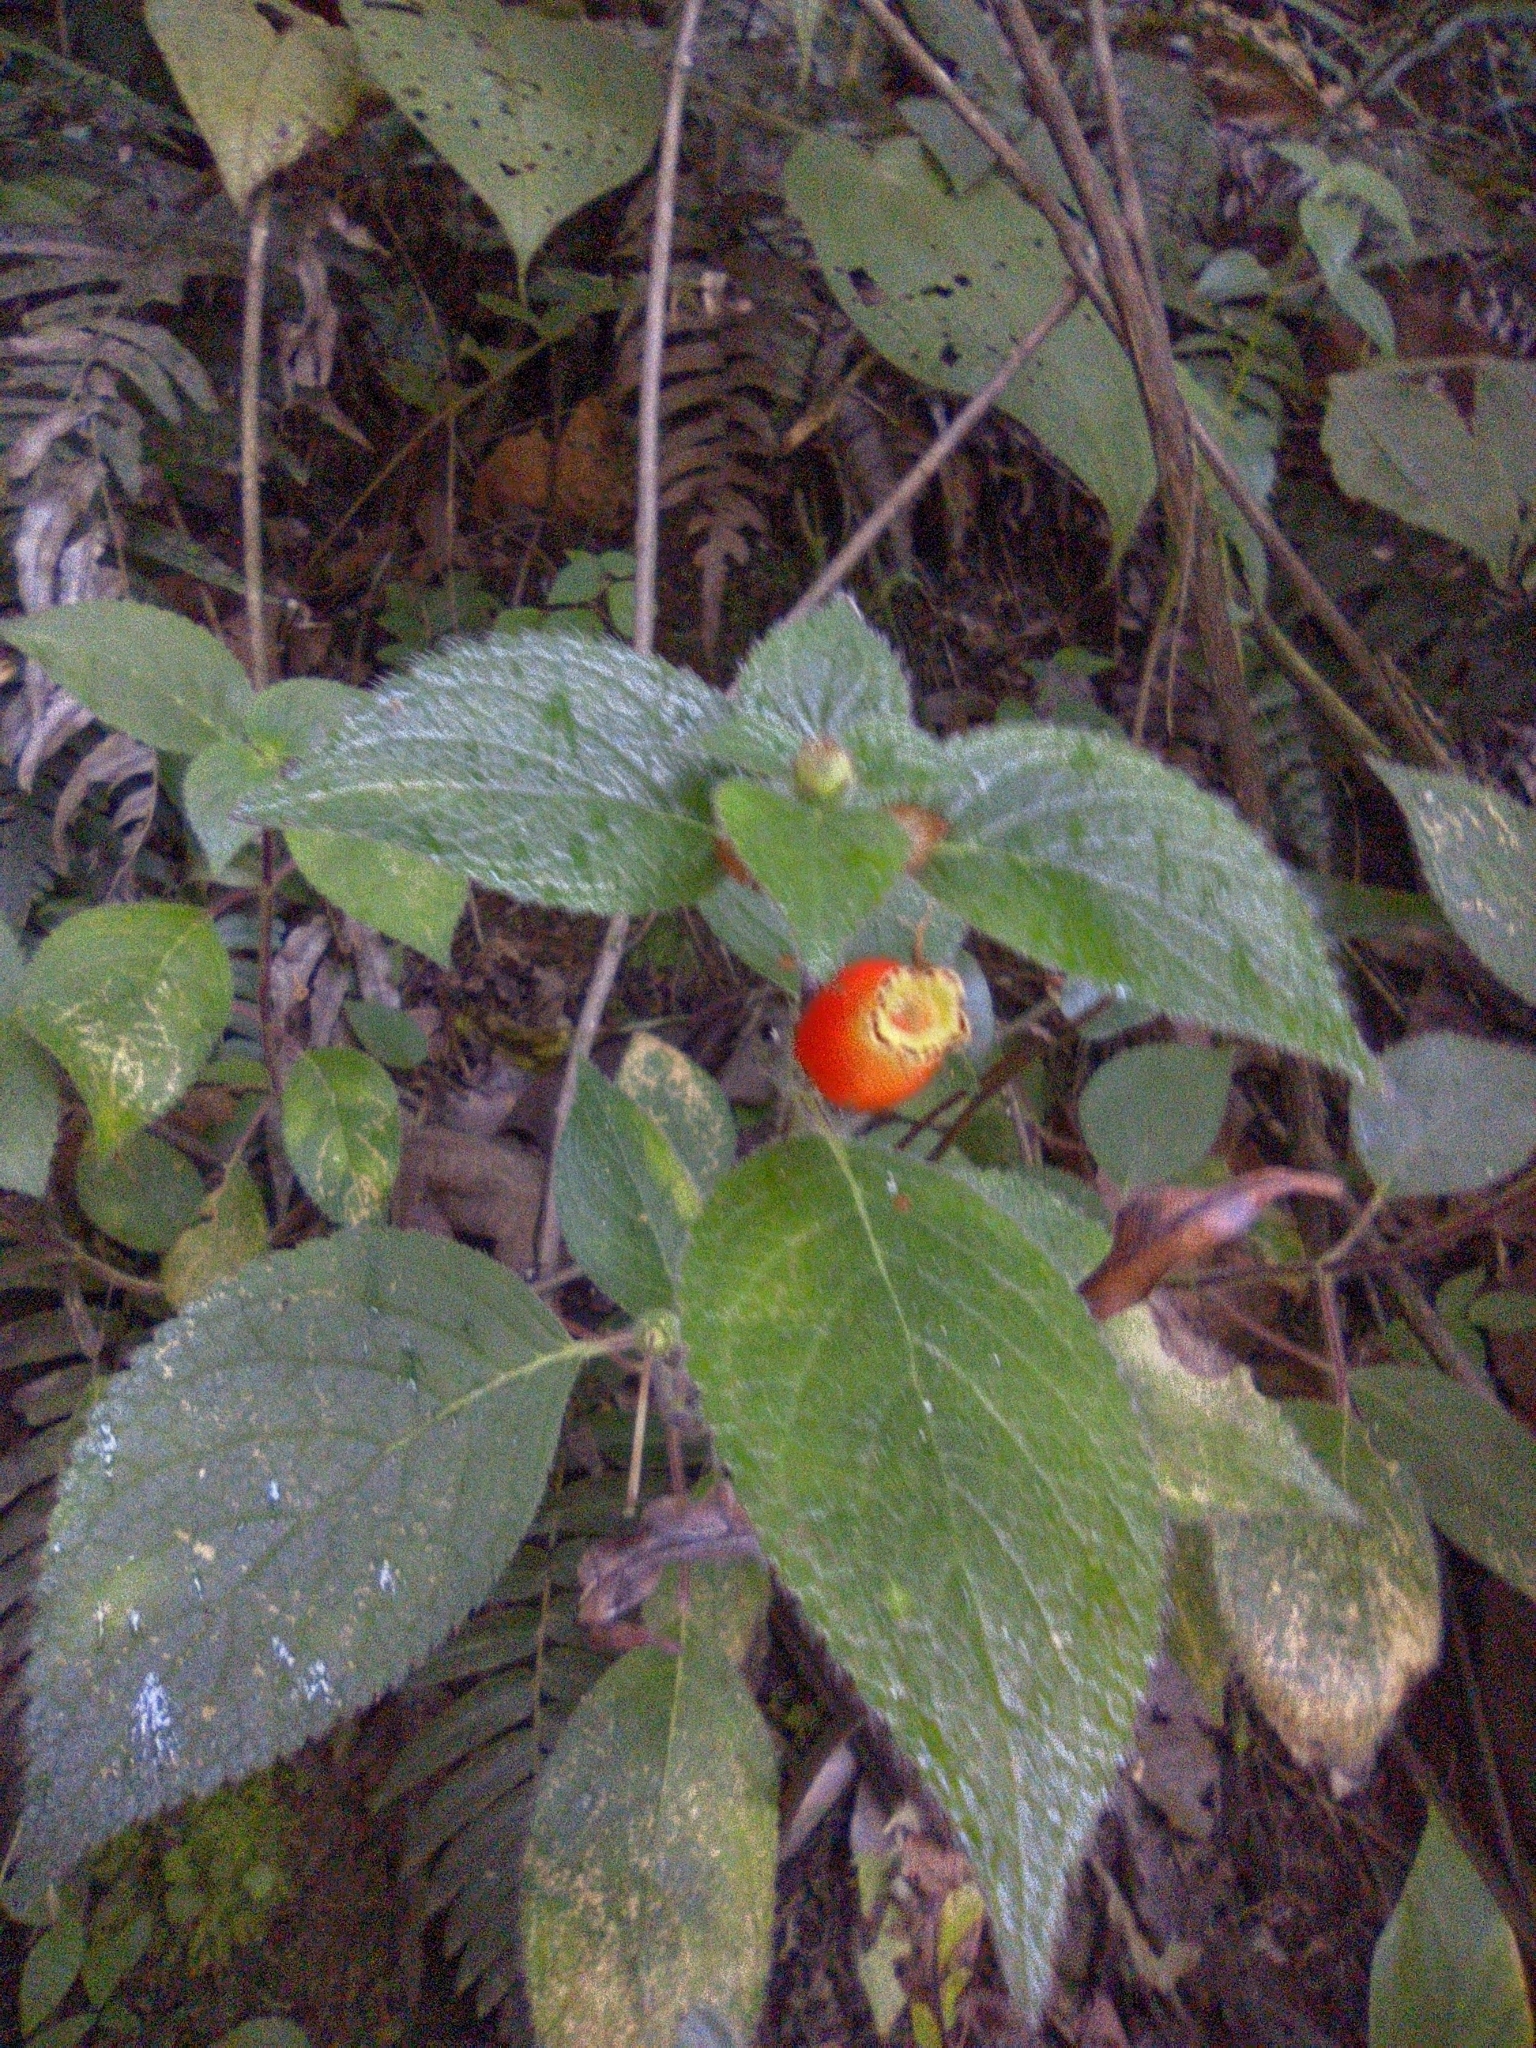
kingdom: Plantae
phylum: Tracheophyta
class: Magnoliopsida
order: Lamiales
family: Gesneriaceae
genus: Kohleria
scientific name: Kohleria tubiflora
